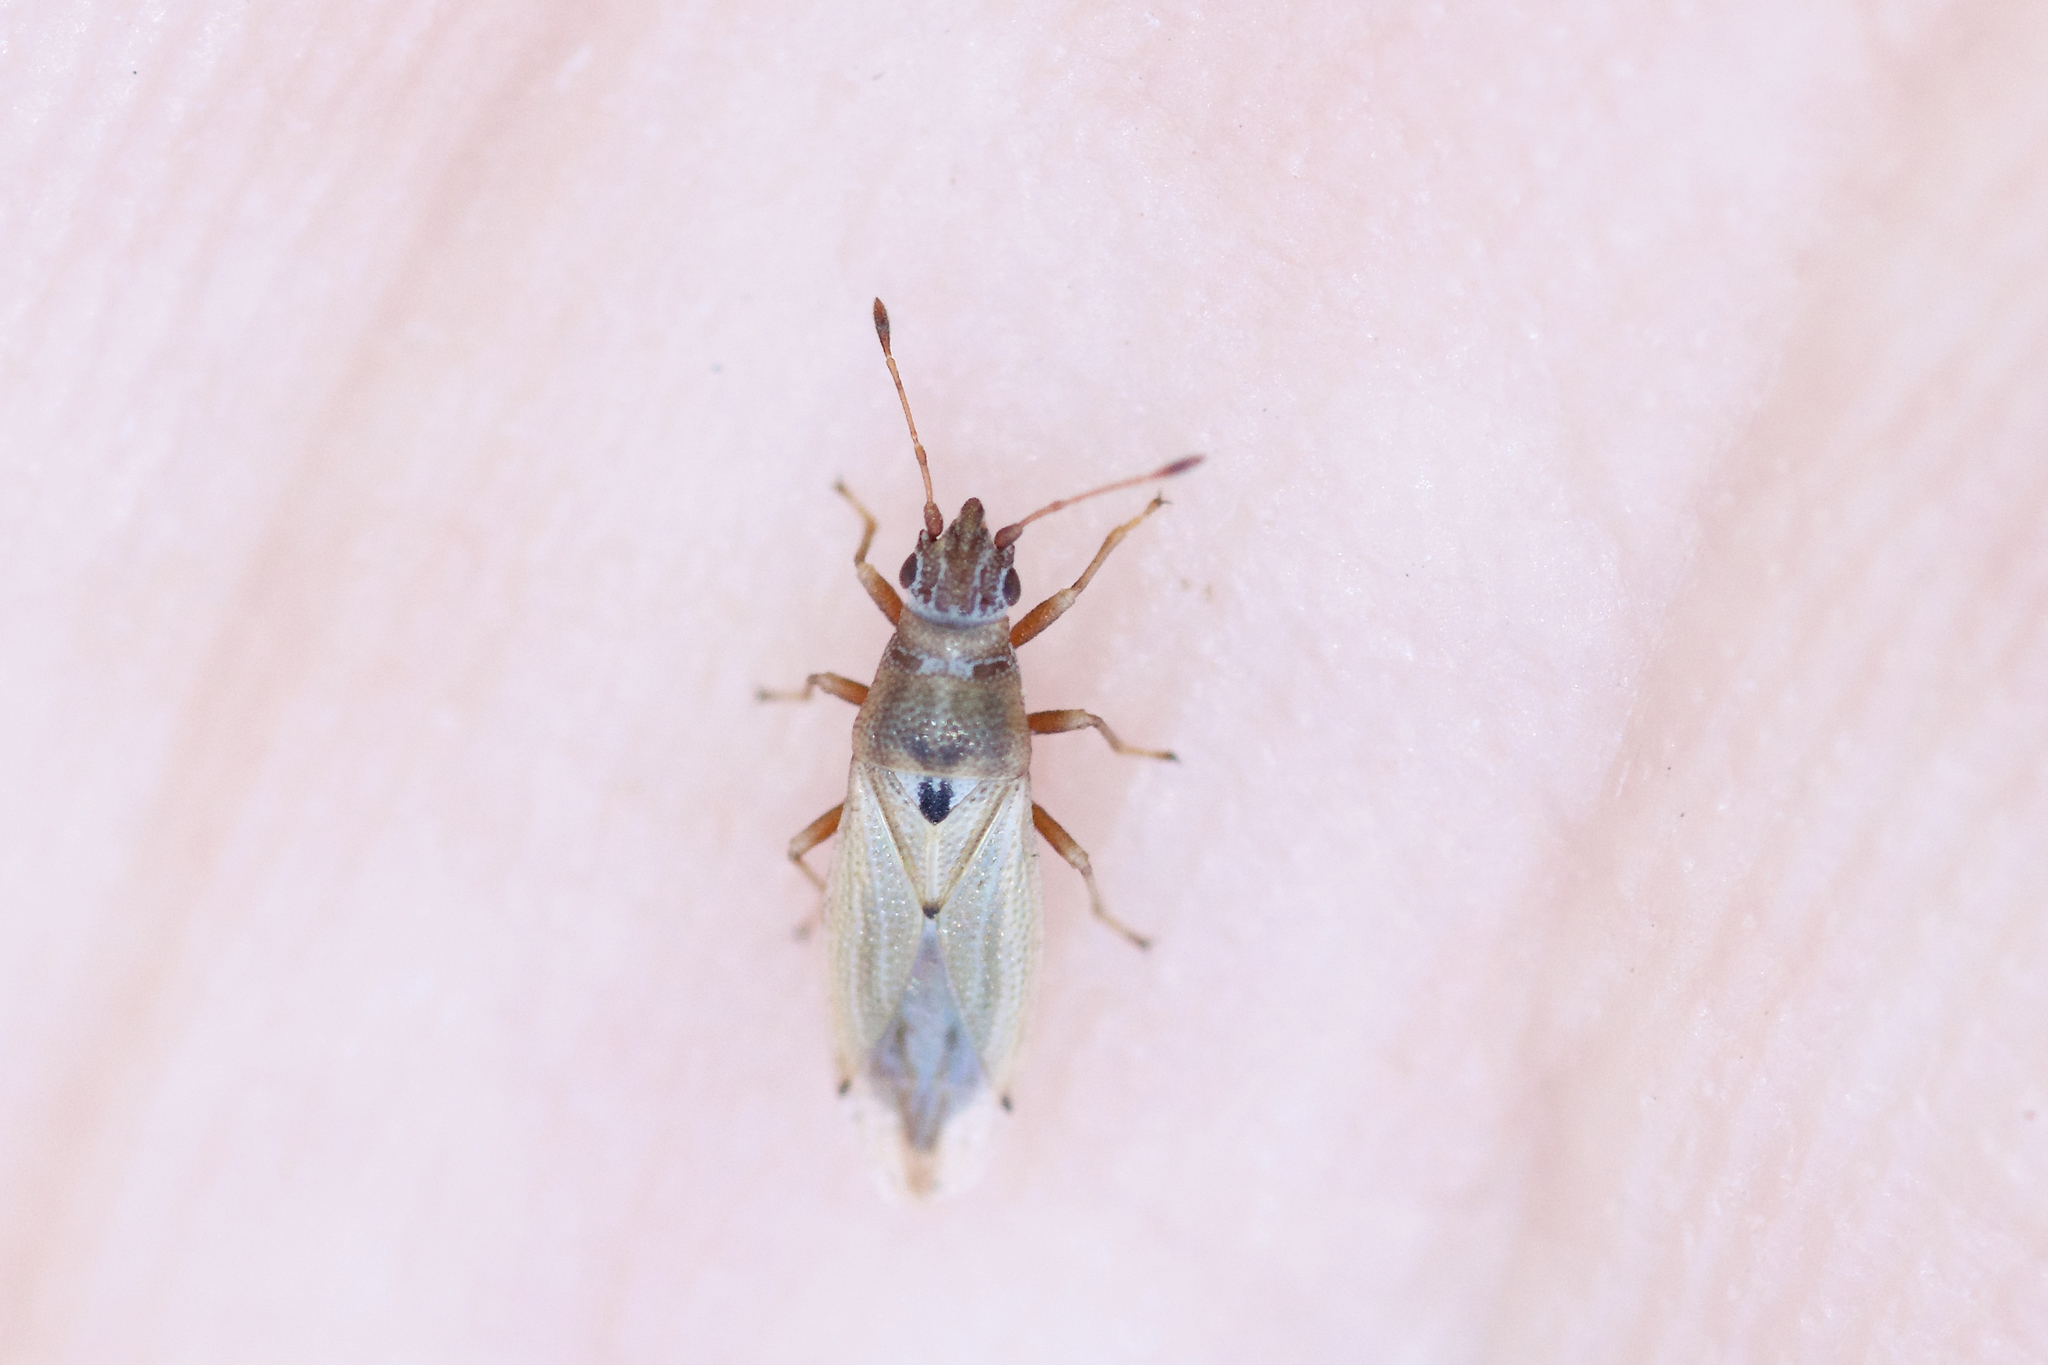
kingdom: Animalia
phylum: Arthropoda
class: Insecta
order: Hemiptera
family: Cymidae
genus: Cymus
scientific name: Cymus angustatus
